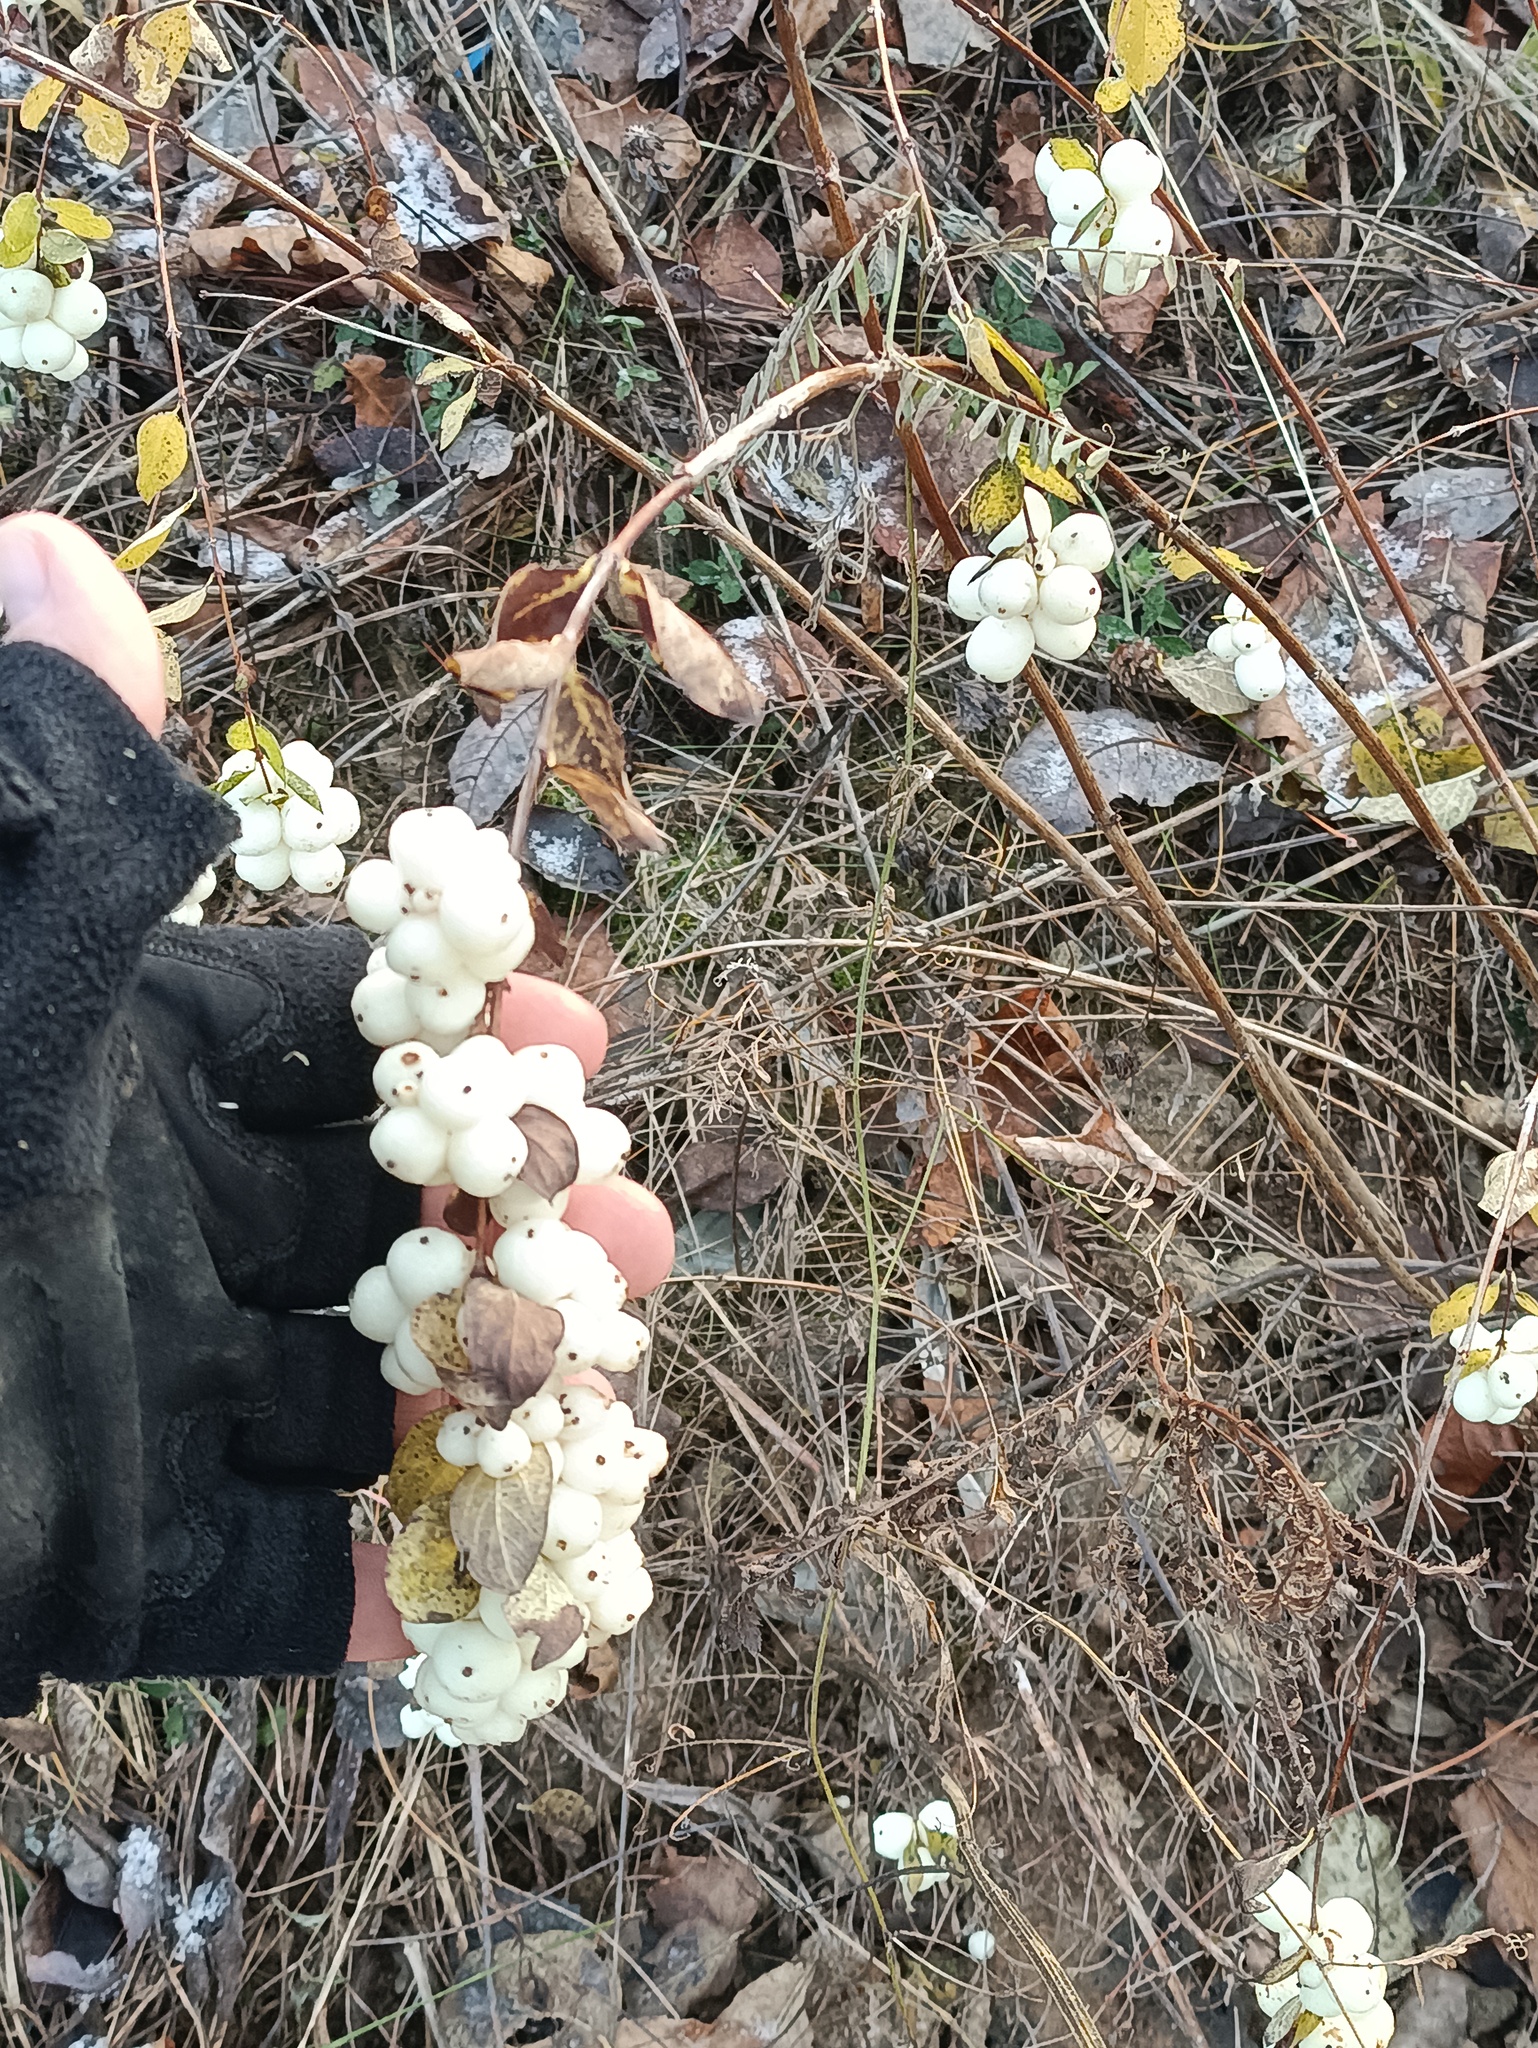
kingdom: Plantae
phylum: Tracheophyta
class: Magnoliopsida
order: Dipsacales
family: Caprifoliaceae
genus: Symphoricarpos
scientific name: Symphoricarpos albus
